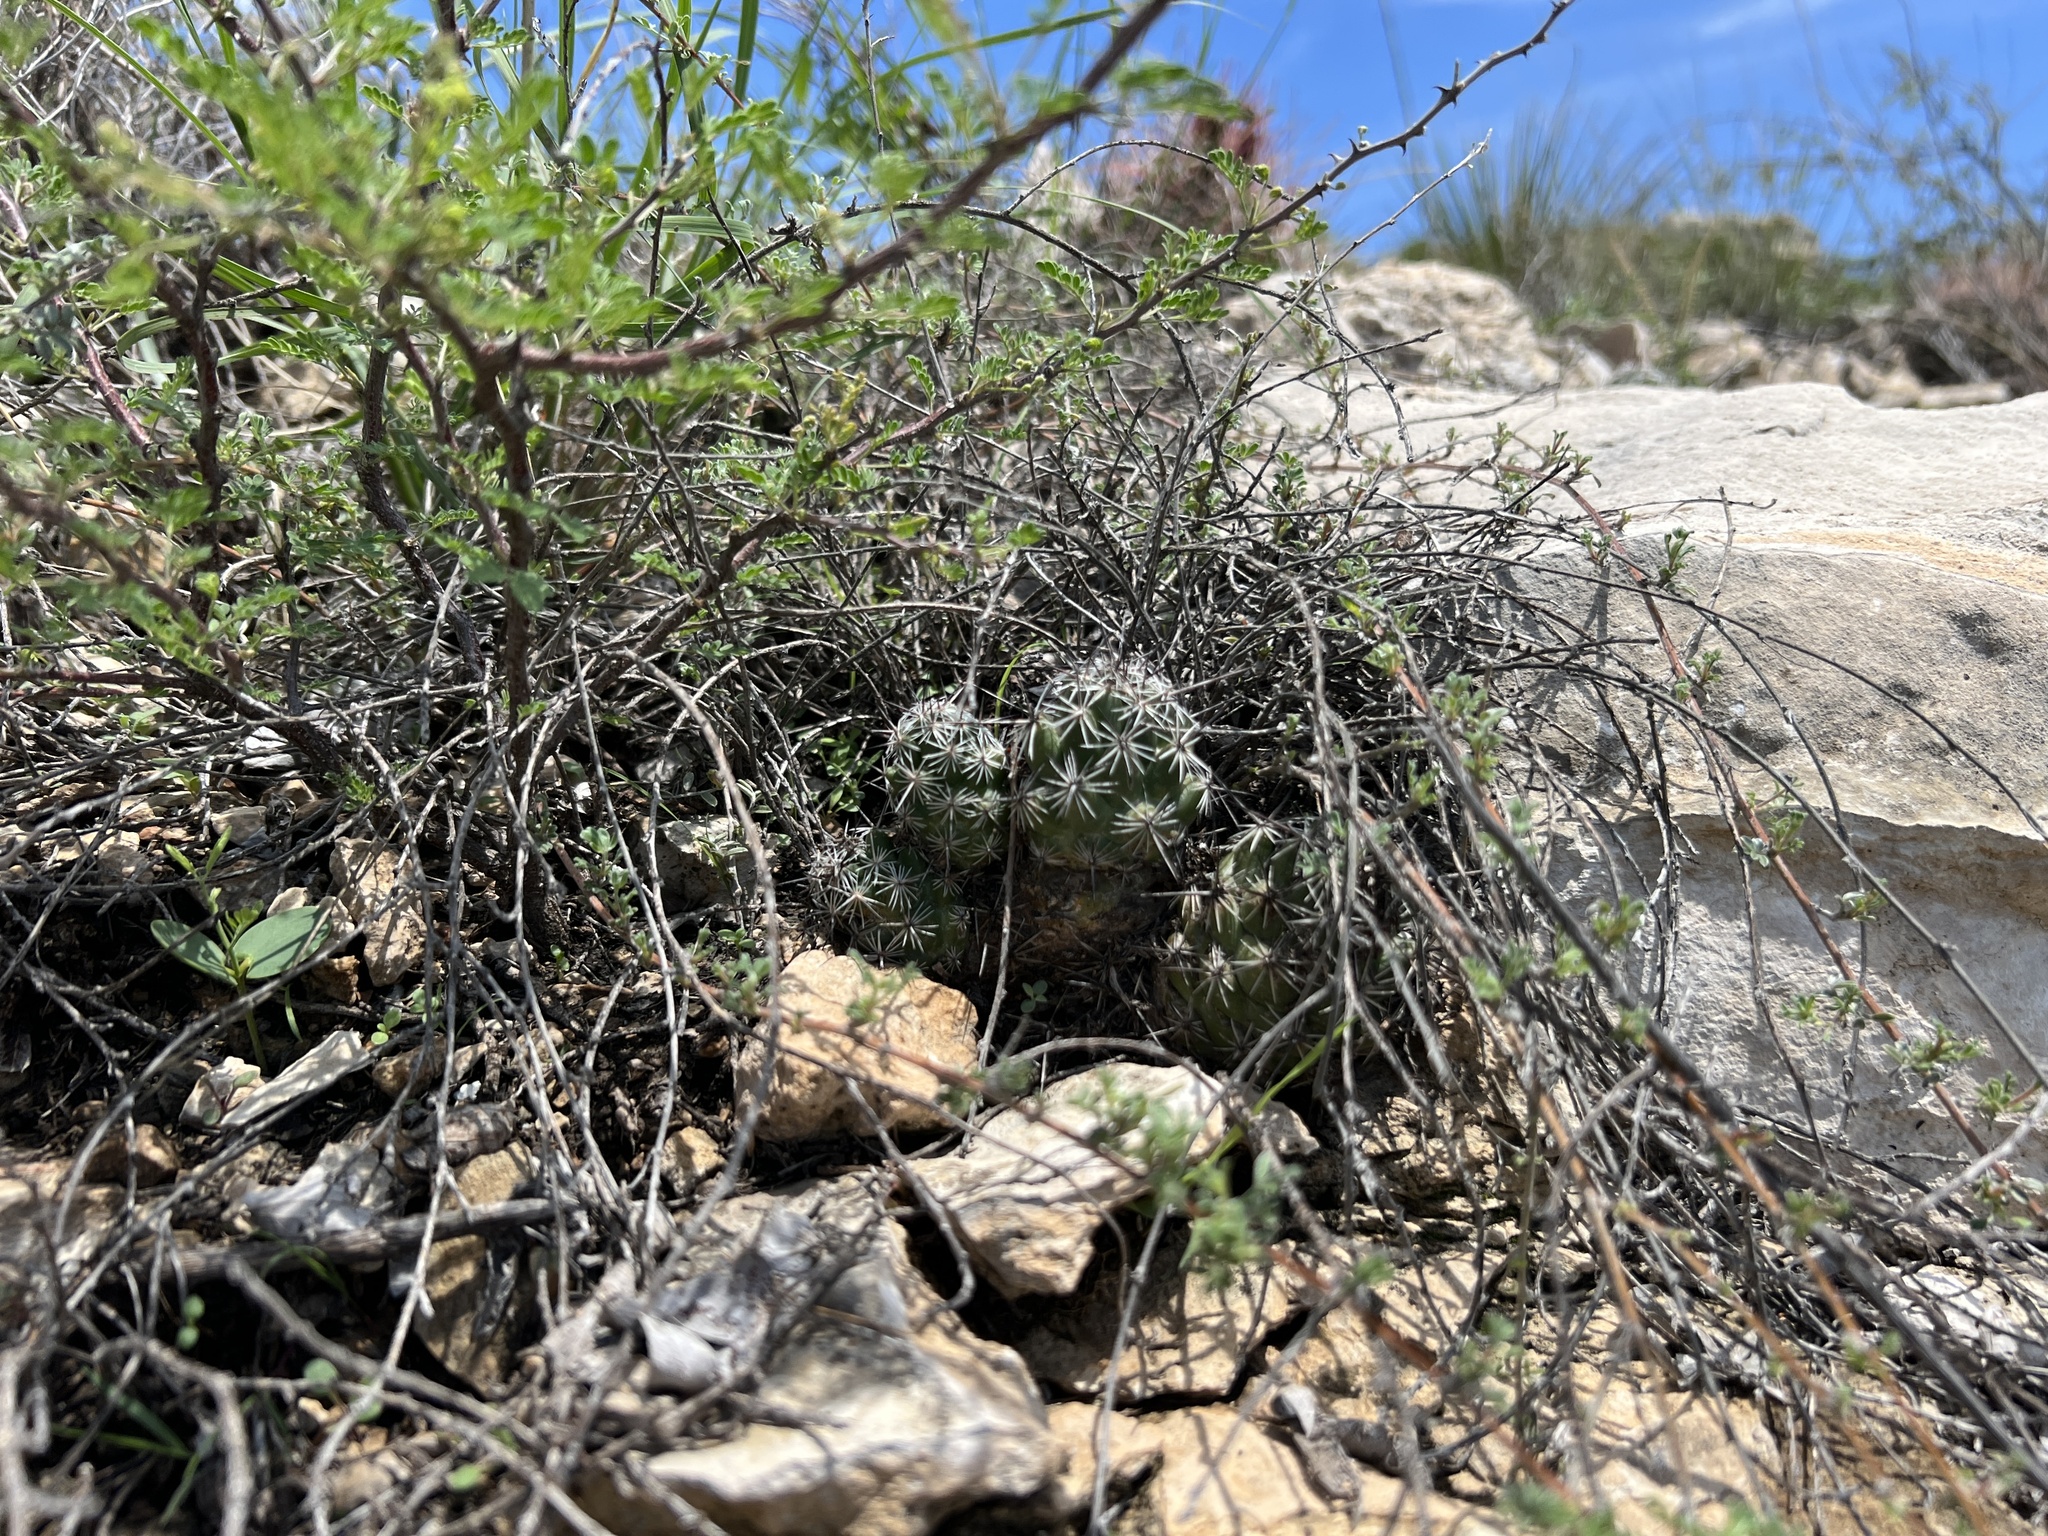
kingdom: Plantae
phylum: Tracheophyta
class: Magnoliopsida
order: Caryophyllales
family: Cactaceae
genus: Cochemiea
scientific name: Cochemiea conoidea
